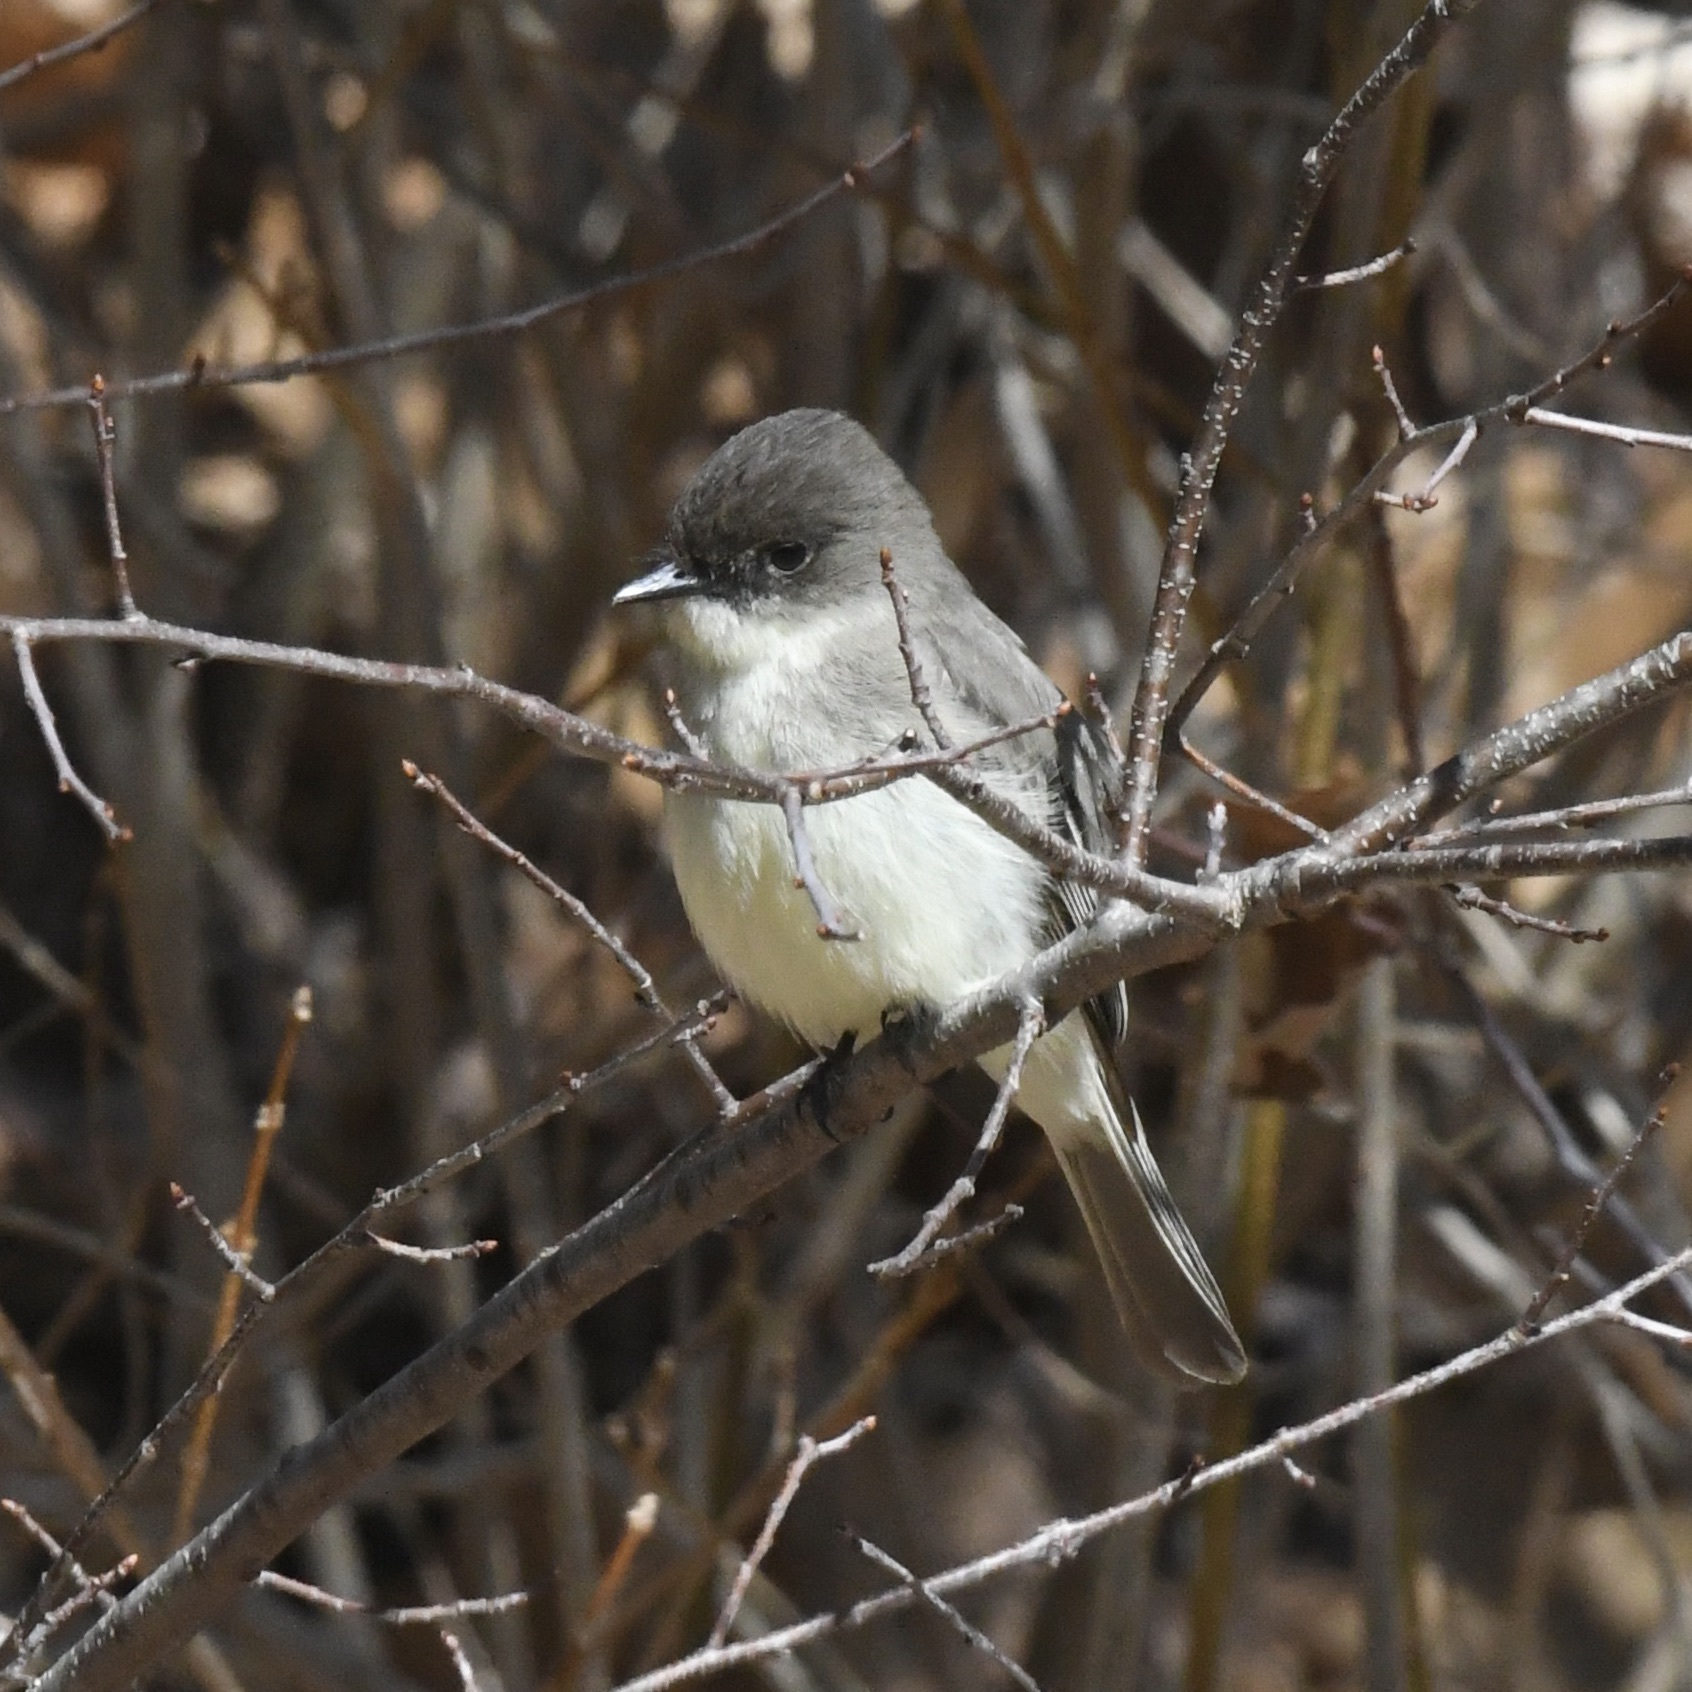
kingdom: Animalia
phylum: Chordata
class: Aves
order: Passeriformes
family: Tyrannidae
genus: Sayornis
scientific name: Sayornis phoebe
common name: Eastern phoebe
